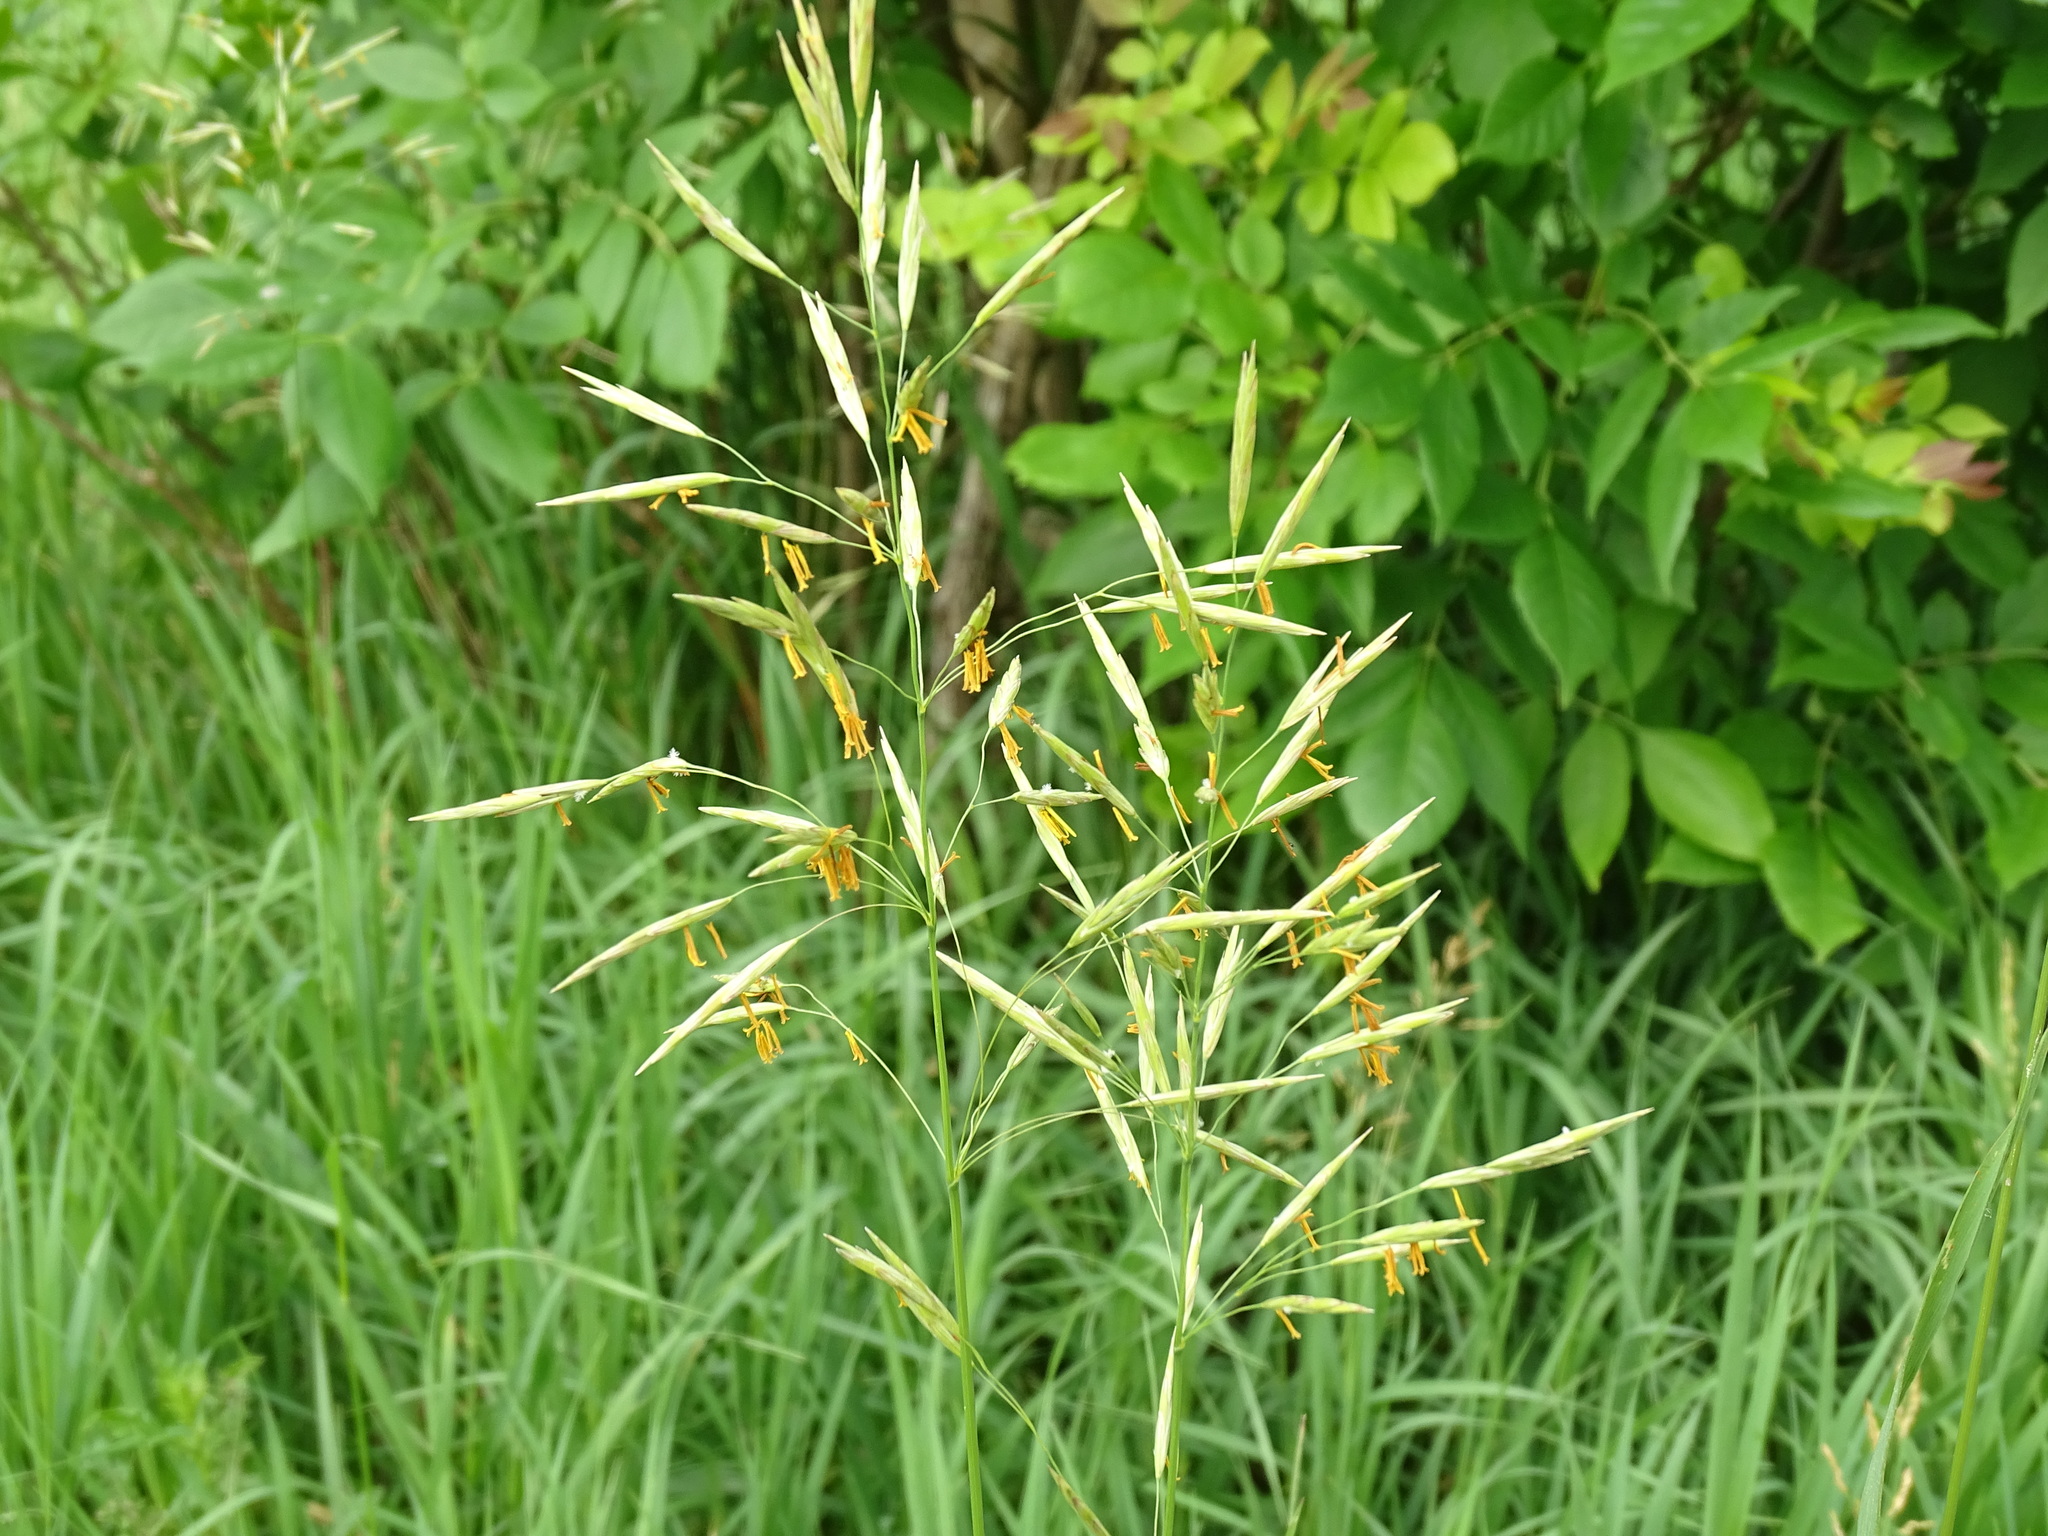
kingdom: Plantae
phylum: Tracheophyta
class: Liliopsida
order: Poales
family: Poaceae
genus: Bromus
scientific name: Bromus inermis
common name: Smooth brome
